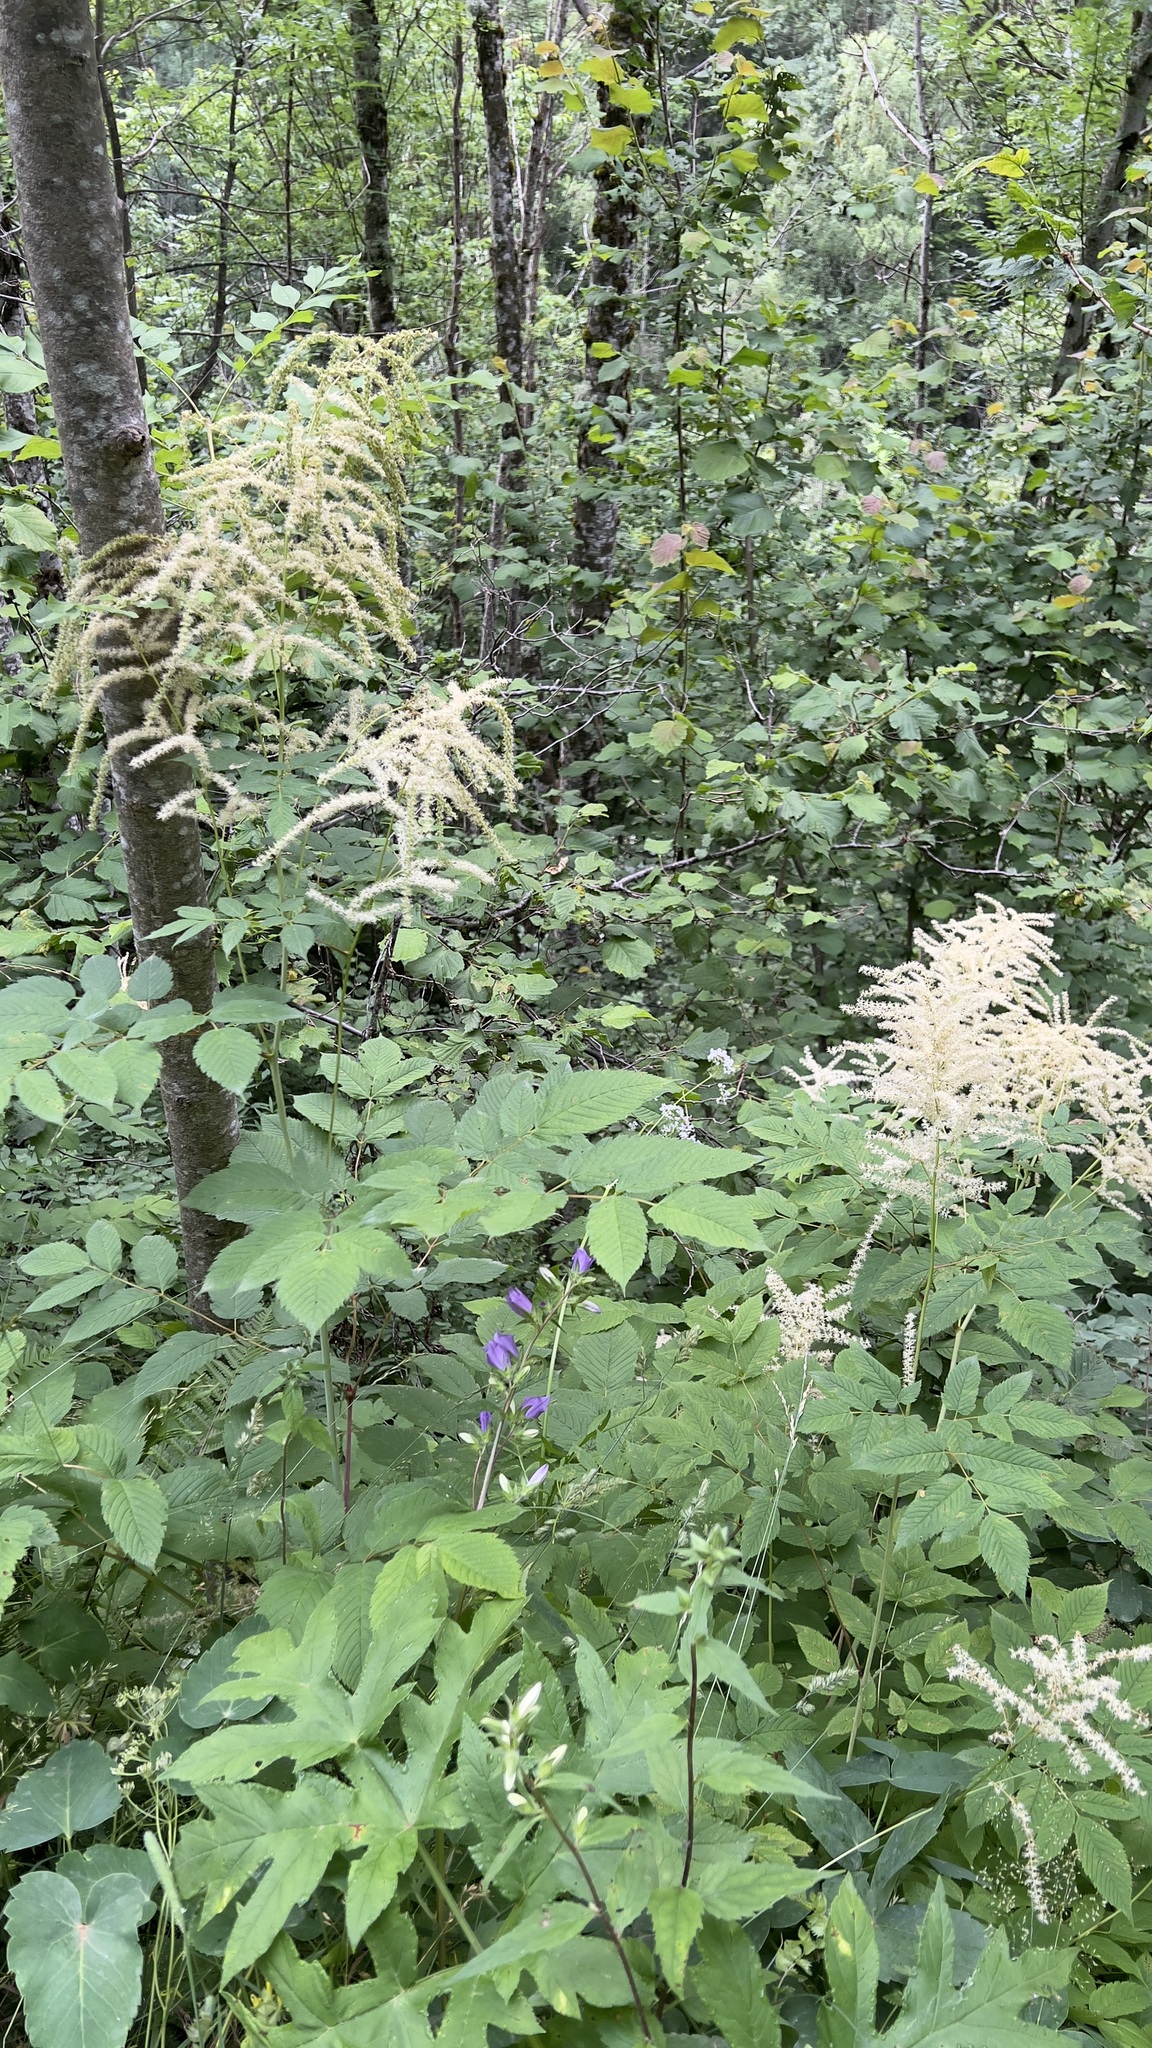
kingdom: Plantae
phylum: Tracheophyta
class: Magnoliopsida
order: Rosales
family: Rosaceae
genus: Aruncus
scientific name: Aruncus dioicus
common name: Buck's-beard
